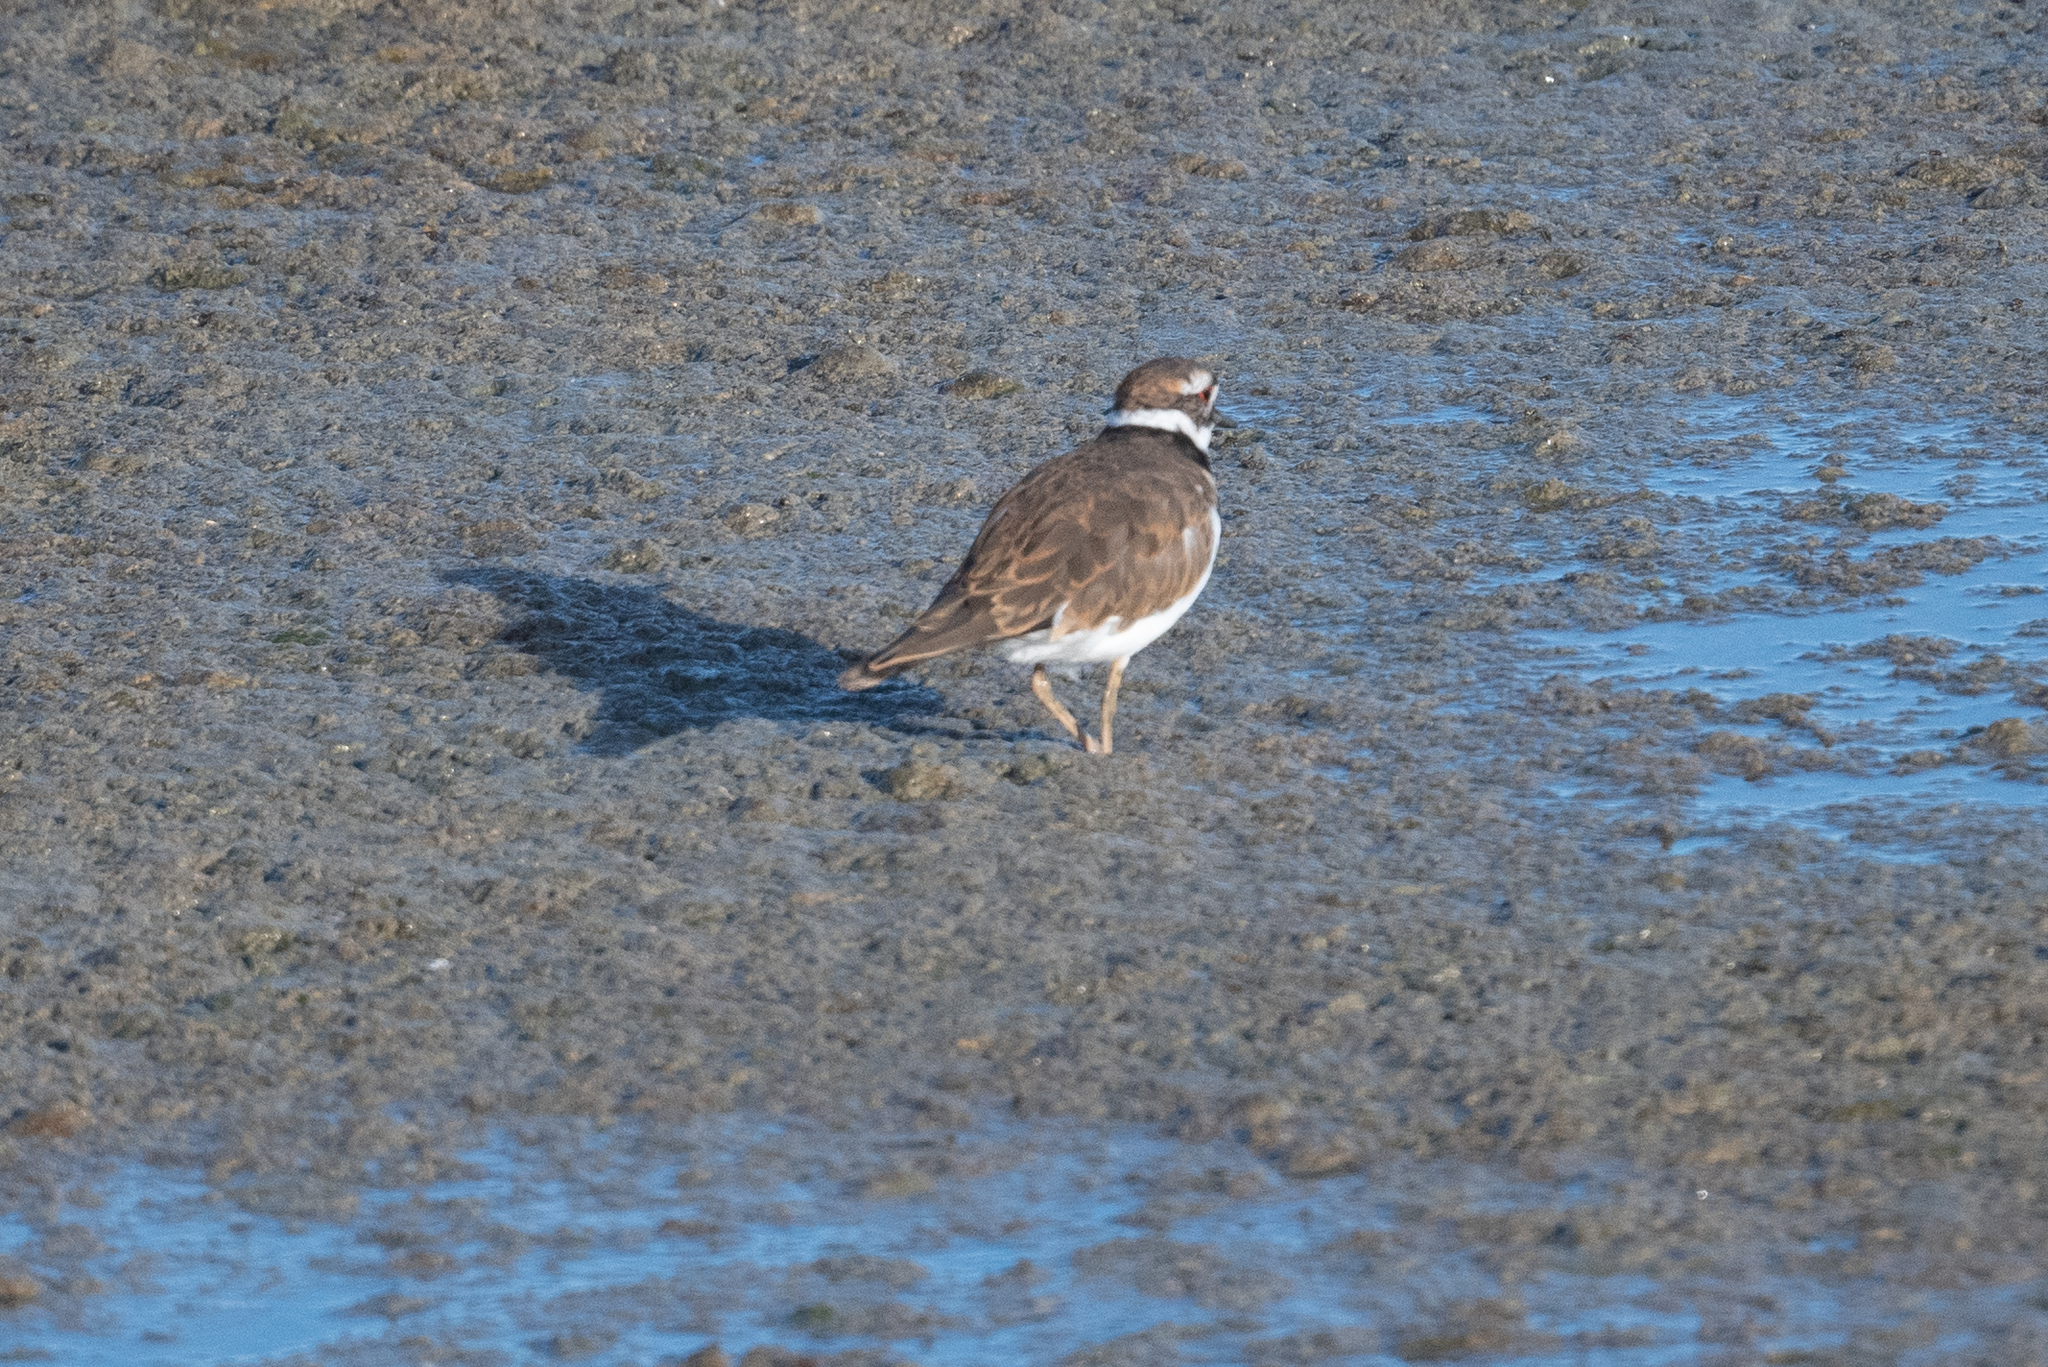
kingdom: Animalia
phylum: Chordata
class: Aves
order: Charadriiformes
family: Charadriidae
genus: Charadrius
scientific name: Charadrius vociferus
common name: Killdeer
